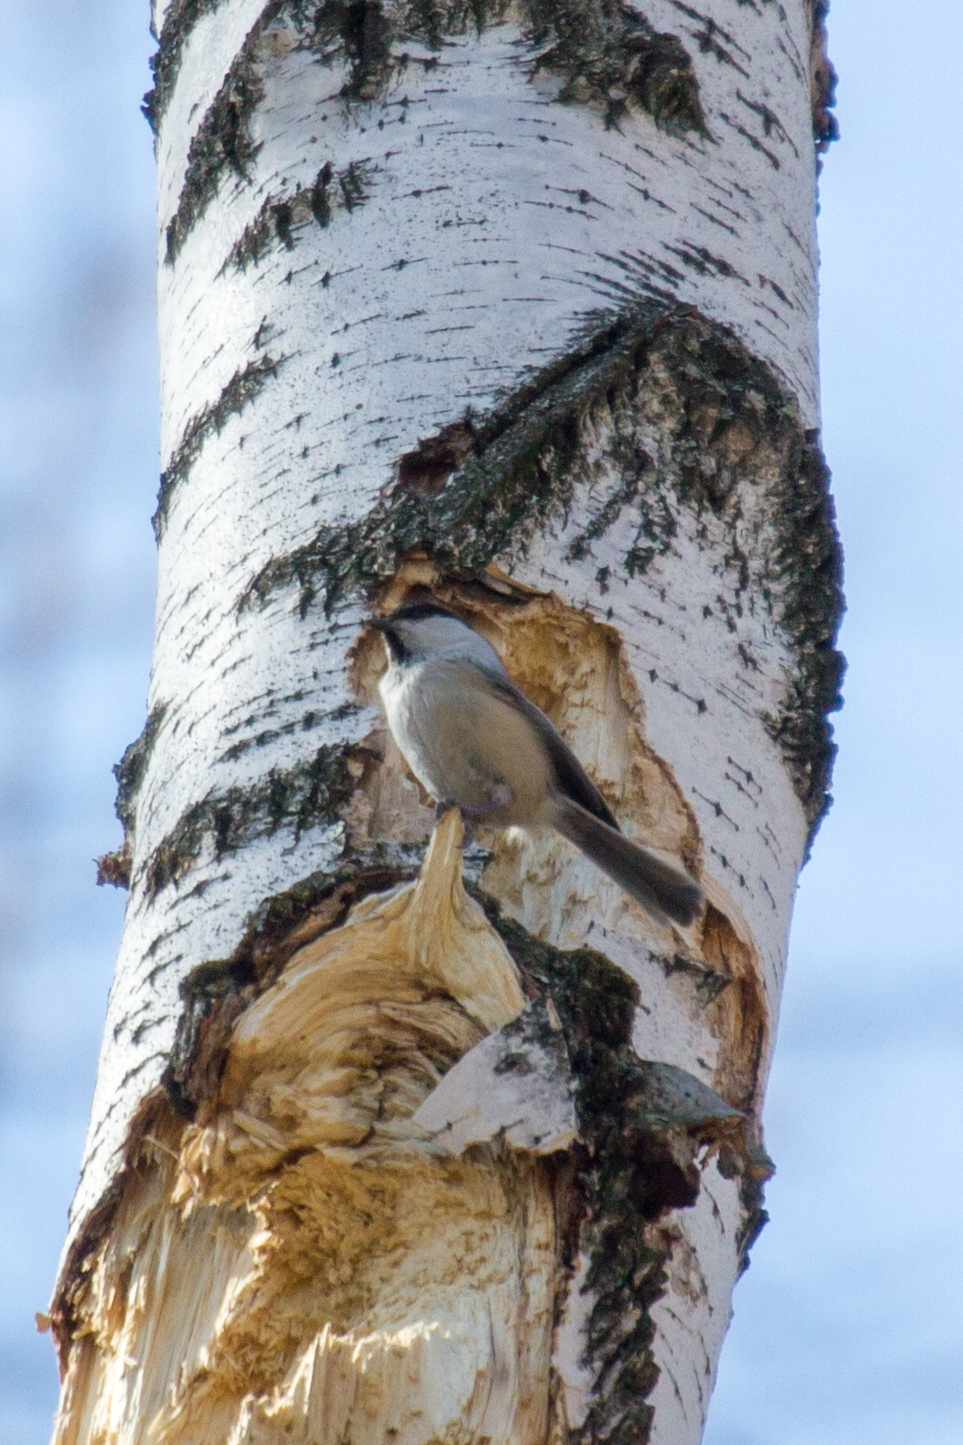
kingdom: Animalia
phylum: Chordata
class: Aves
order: Passeriformes
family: Paridae
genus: Poecile
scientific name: Poecile montanus
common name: Willow tit
